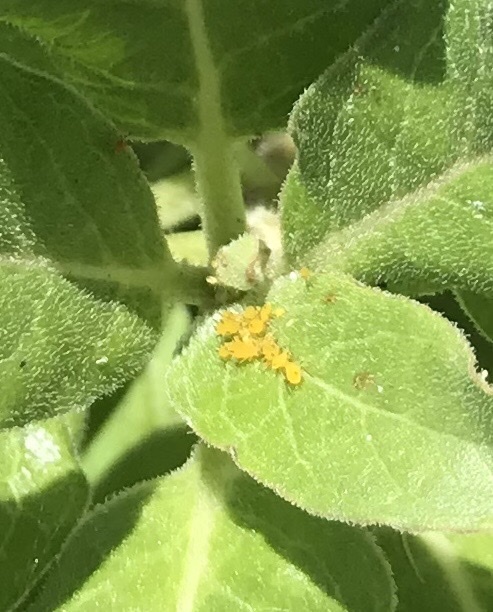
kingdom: Animalia
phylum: Arthropoda
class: Insecta
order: Hemiptera
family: Aphididae
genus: Aphis
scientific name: Aphis nerii
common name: Oleander aphid
